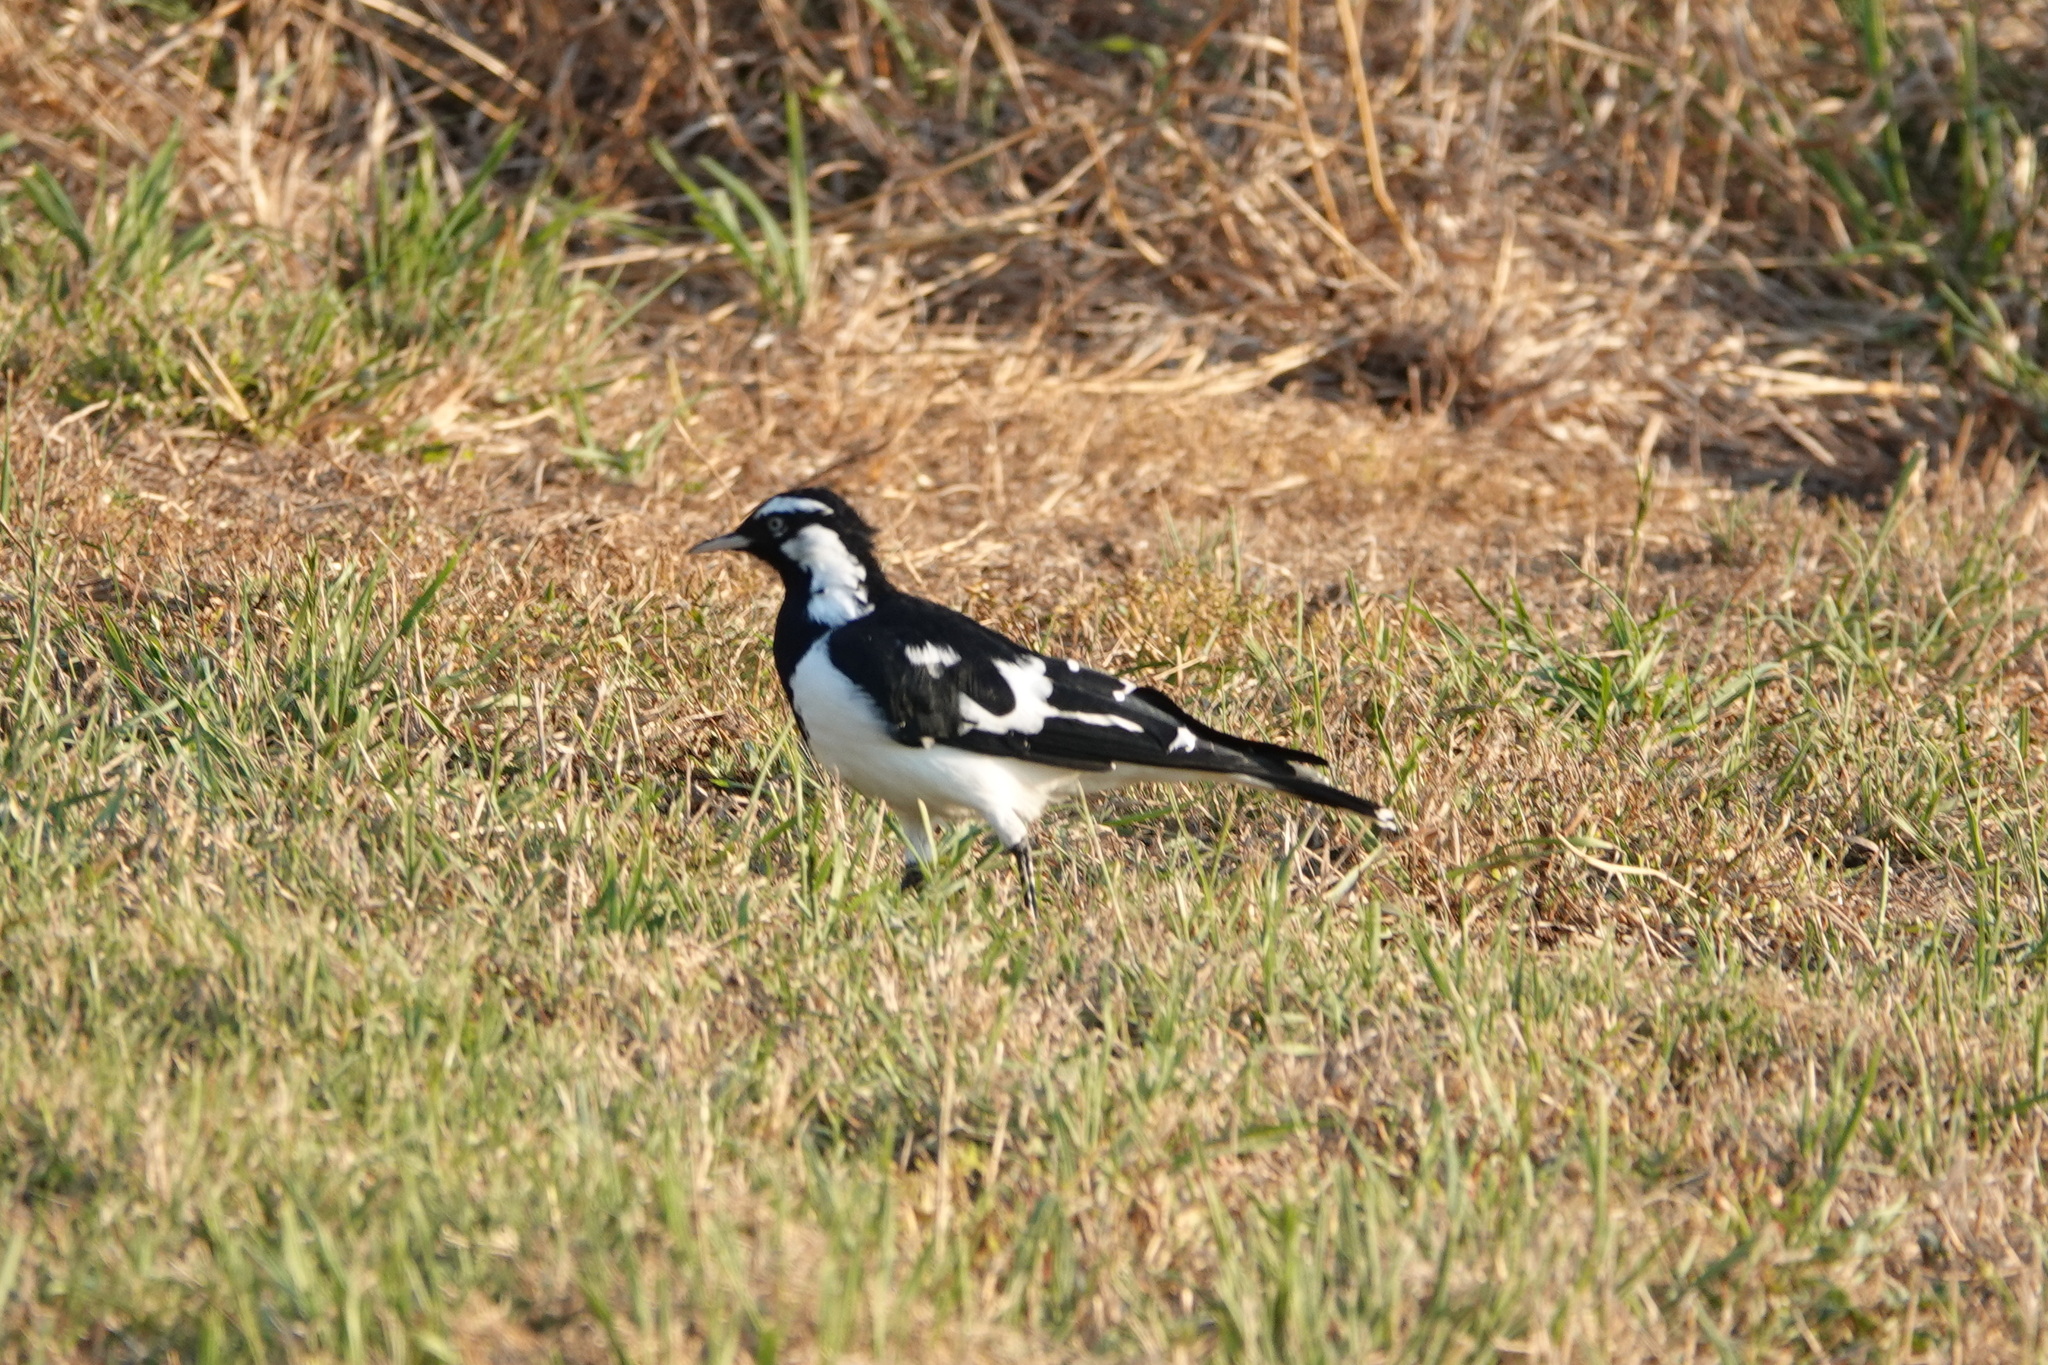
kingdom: Animalia
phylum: Chordata
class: Aves
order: Passeriformes
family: Monarchidae
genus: Grallina
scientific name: Grallina cyanoleuca
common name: Magpie-lark
